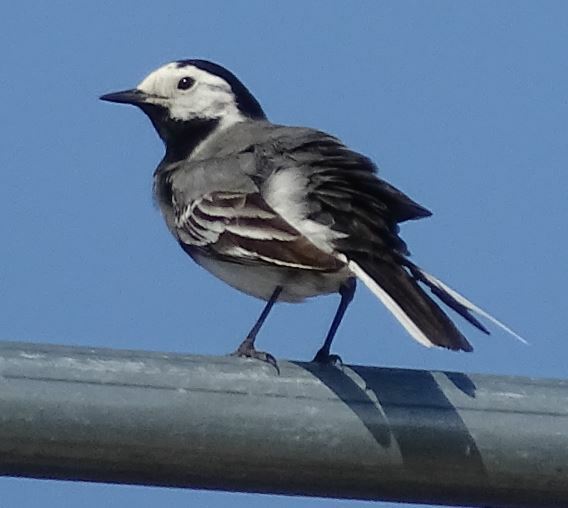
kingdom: Animalia
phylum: Chordata
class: Aves
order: Passeriformes
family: Motacillidae
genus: Motacilla
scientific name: Motacilla alba
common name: White wagtail
